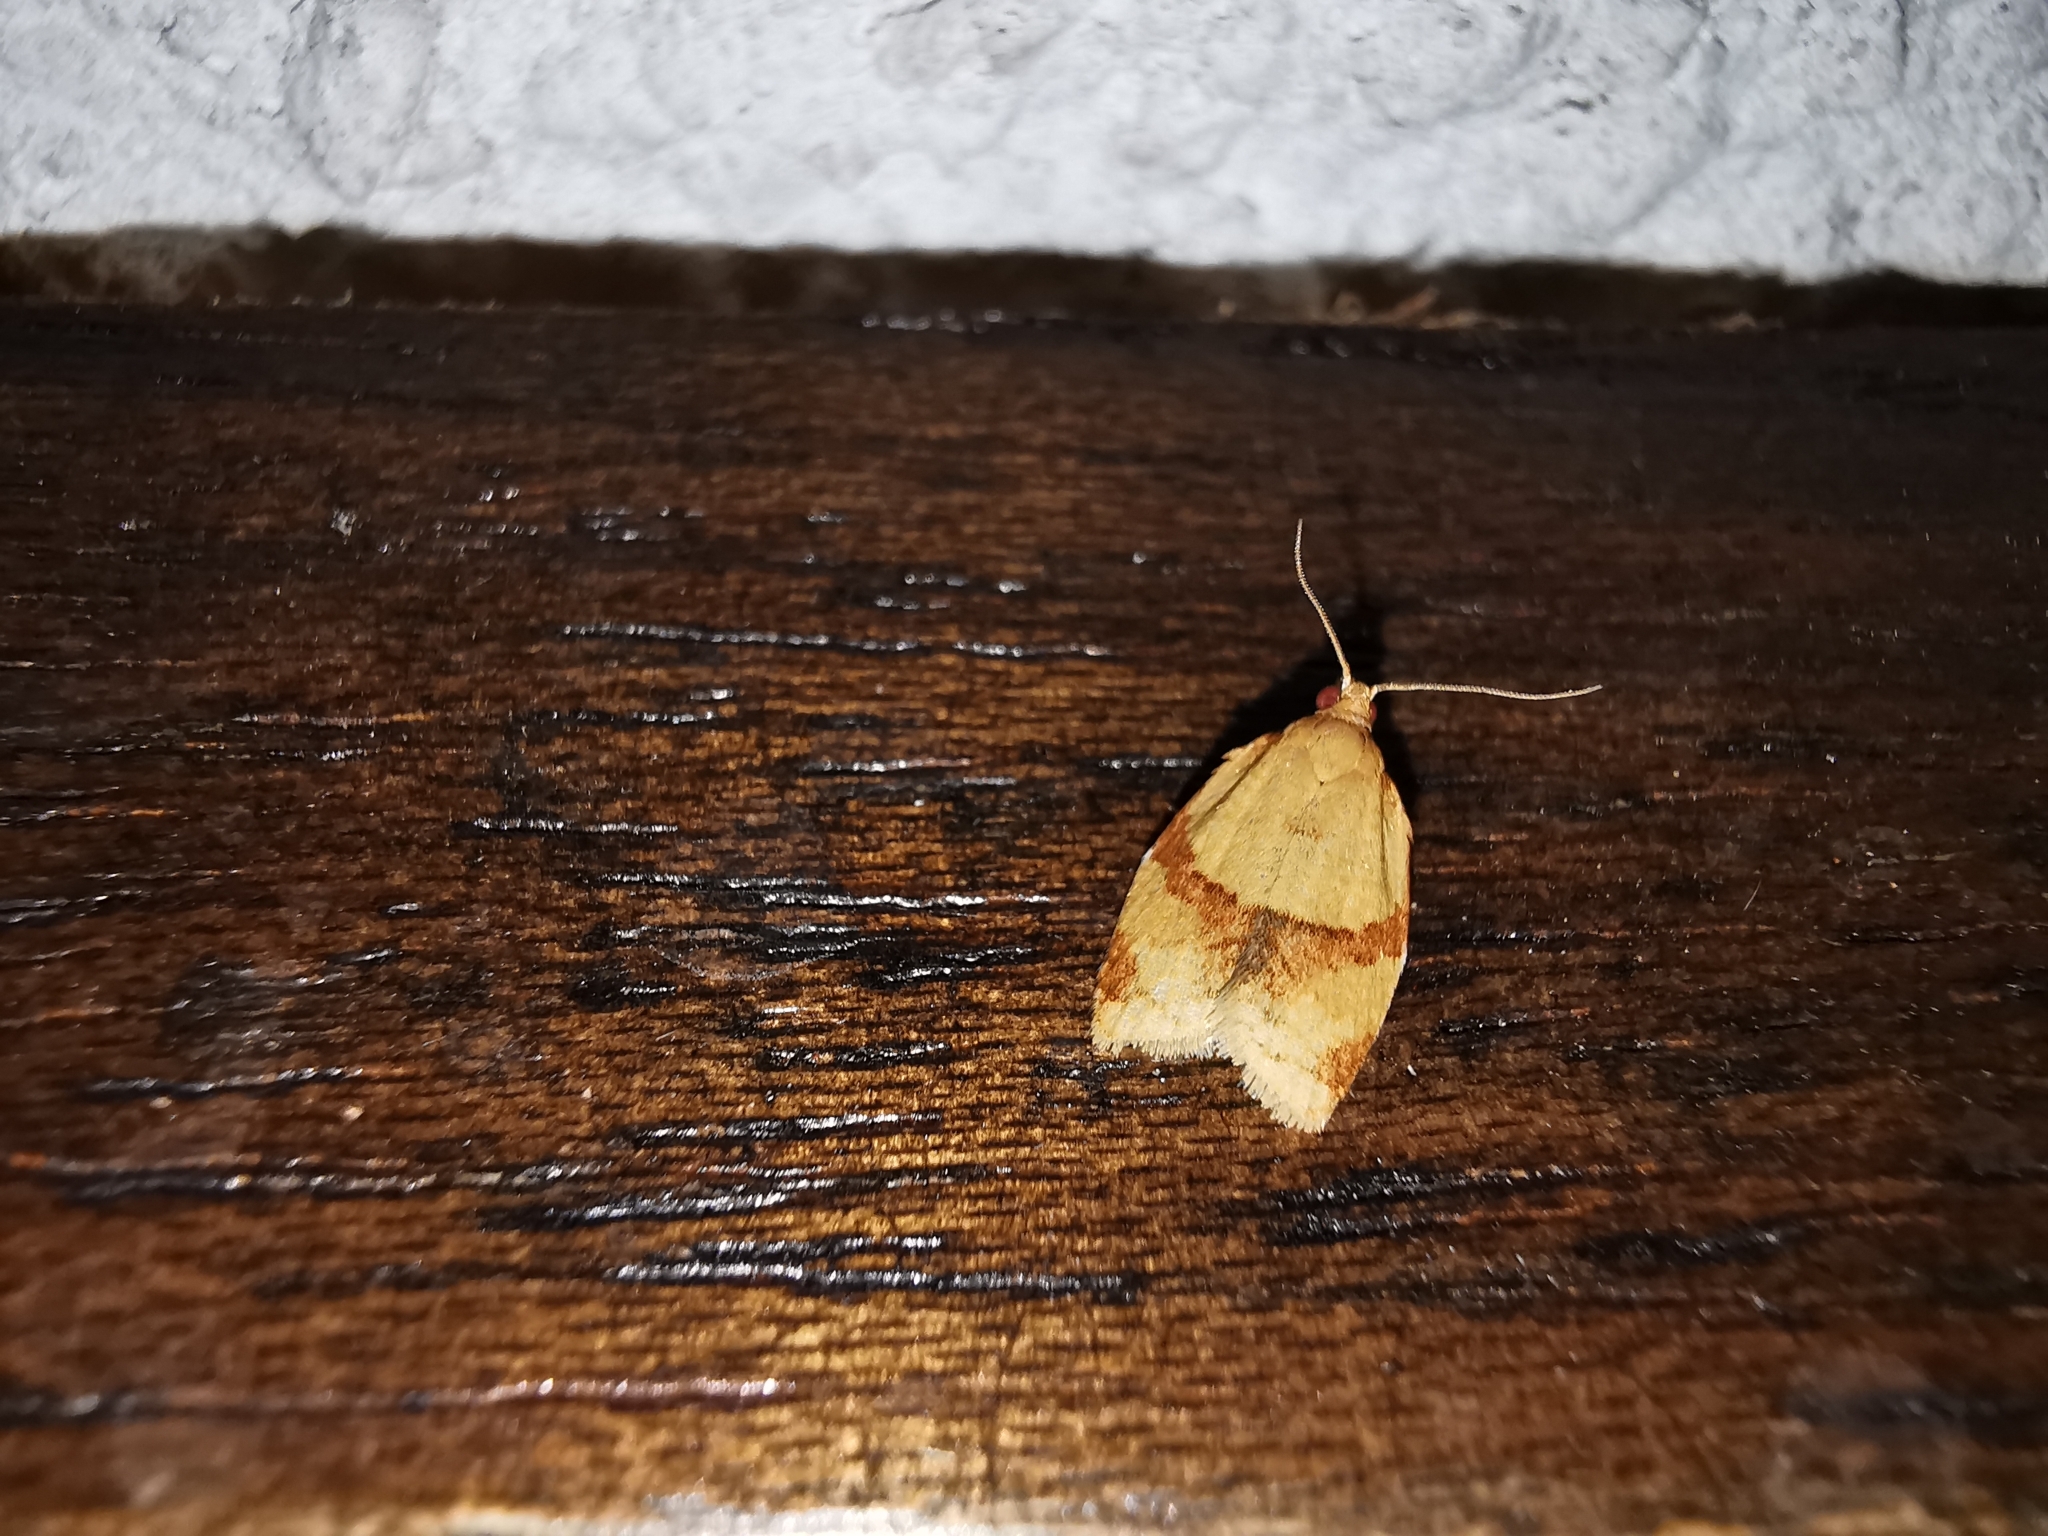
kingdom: Animalia
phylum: Arthropoda
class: Insecta
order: Lepidoptera
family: Tortricidae
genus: Clepsis
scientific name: Clepsis consimilana
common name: Privet tortrix
